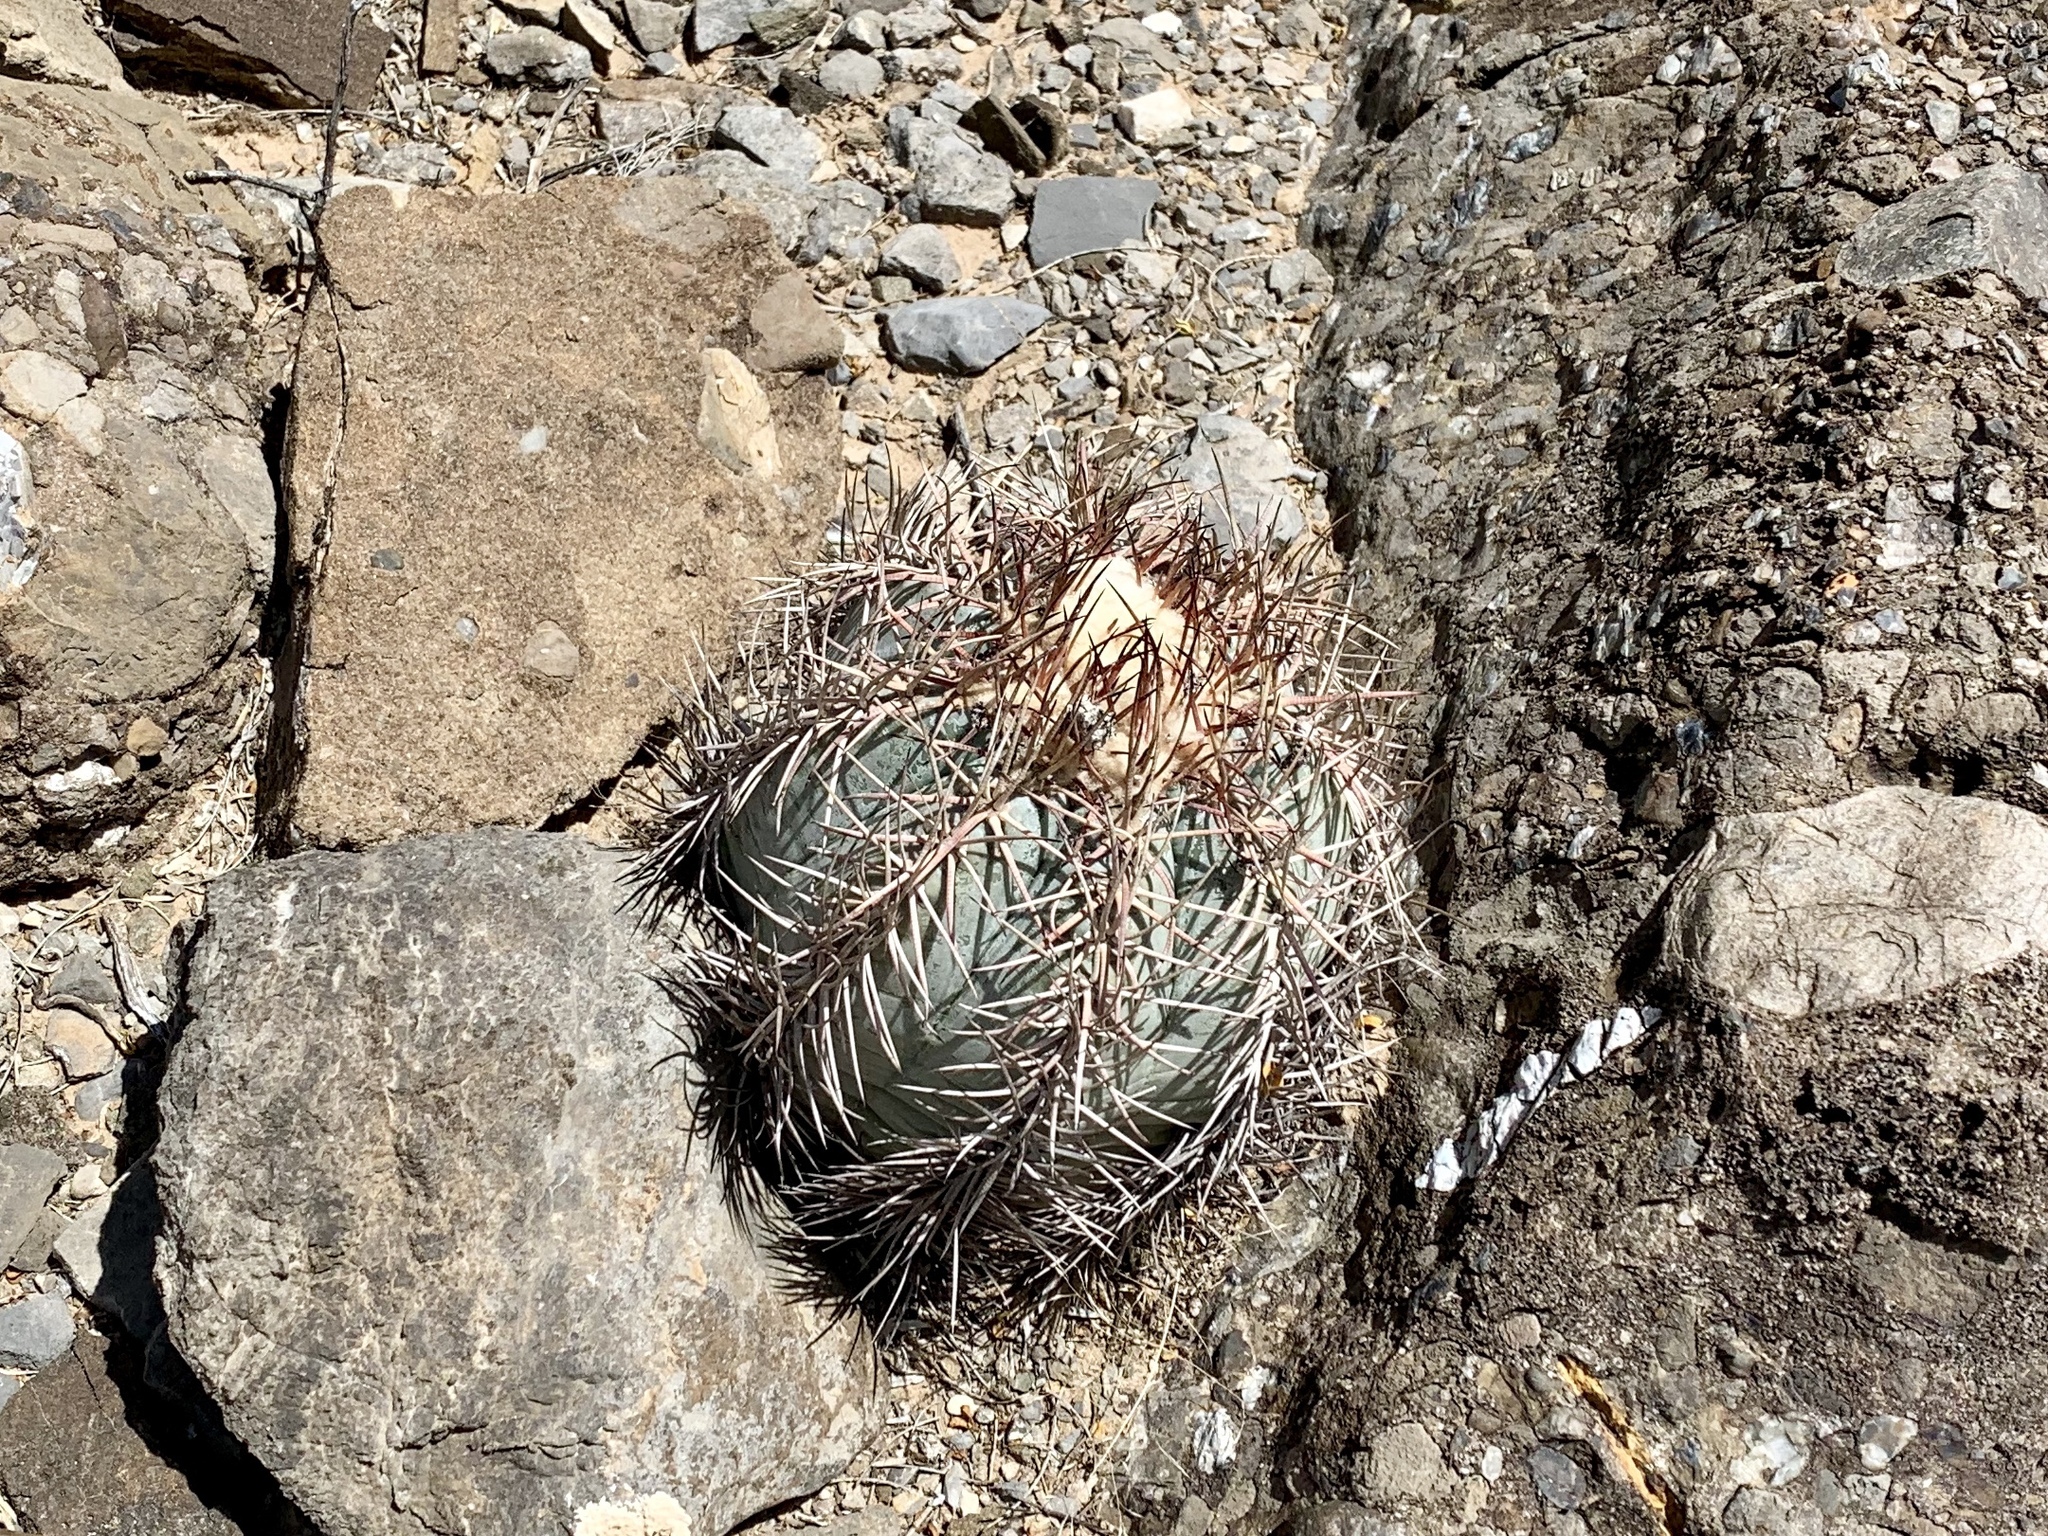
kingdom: Plantae
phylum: Tracheophyta
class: Magnoliopsida
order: Caryophyllales
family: Cactaceae
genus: Echinocactus
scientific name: Echinocactus horizonthalonius
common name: Devilshead
